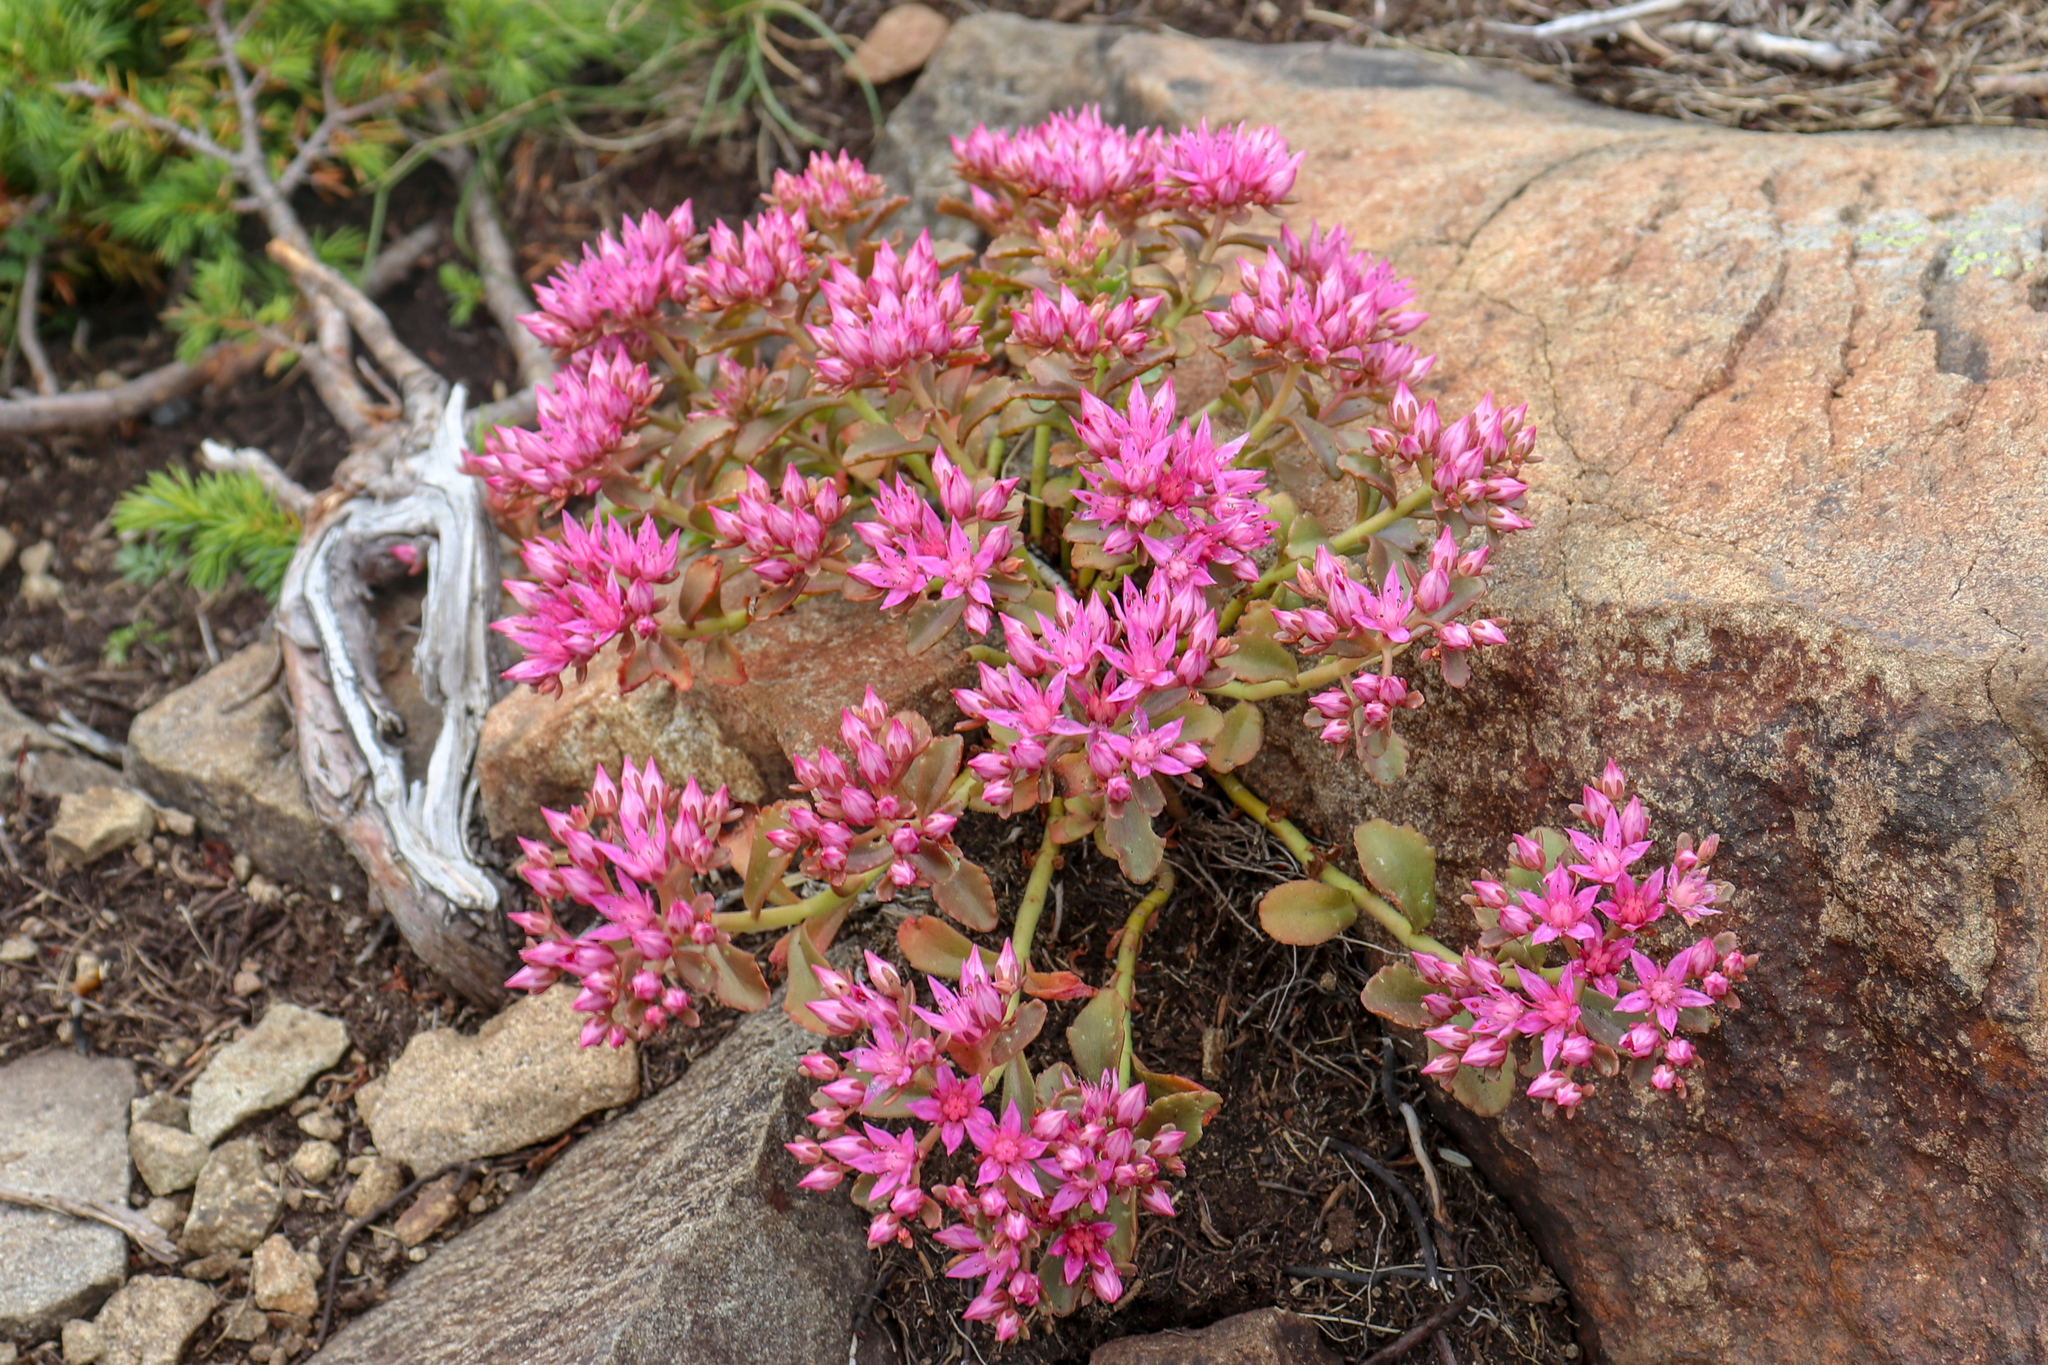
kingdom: Plantae
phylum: Tracheophyta
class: Magnoliopsida
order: Saxifragales
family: Crassulaceae
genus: Phedimus
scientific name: Phedimus spurius
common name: Caucasian stonecrop
